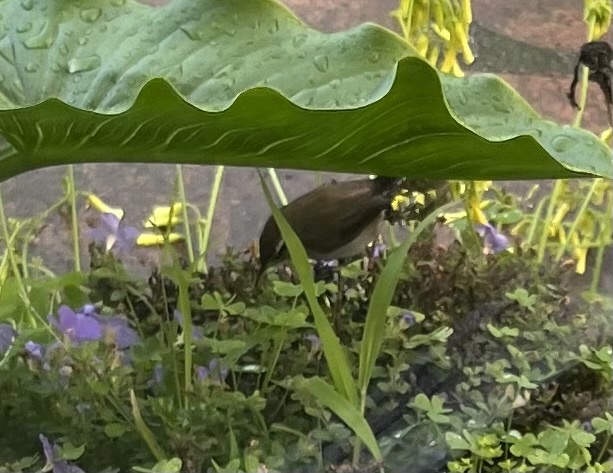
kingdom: Animalia
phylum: Chordata
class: Aves
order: Passeriformes
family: Troglodytidae
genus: Thryomanes
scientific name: Thryomanes bewickii
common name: Bewick's wren
